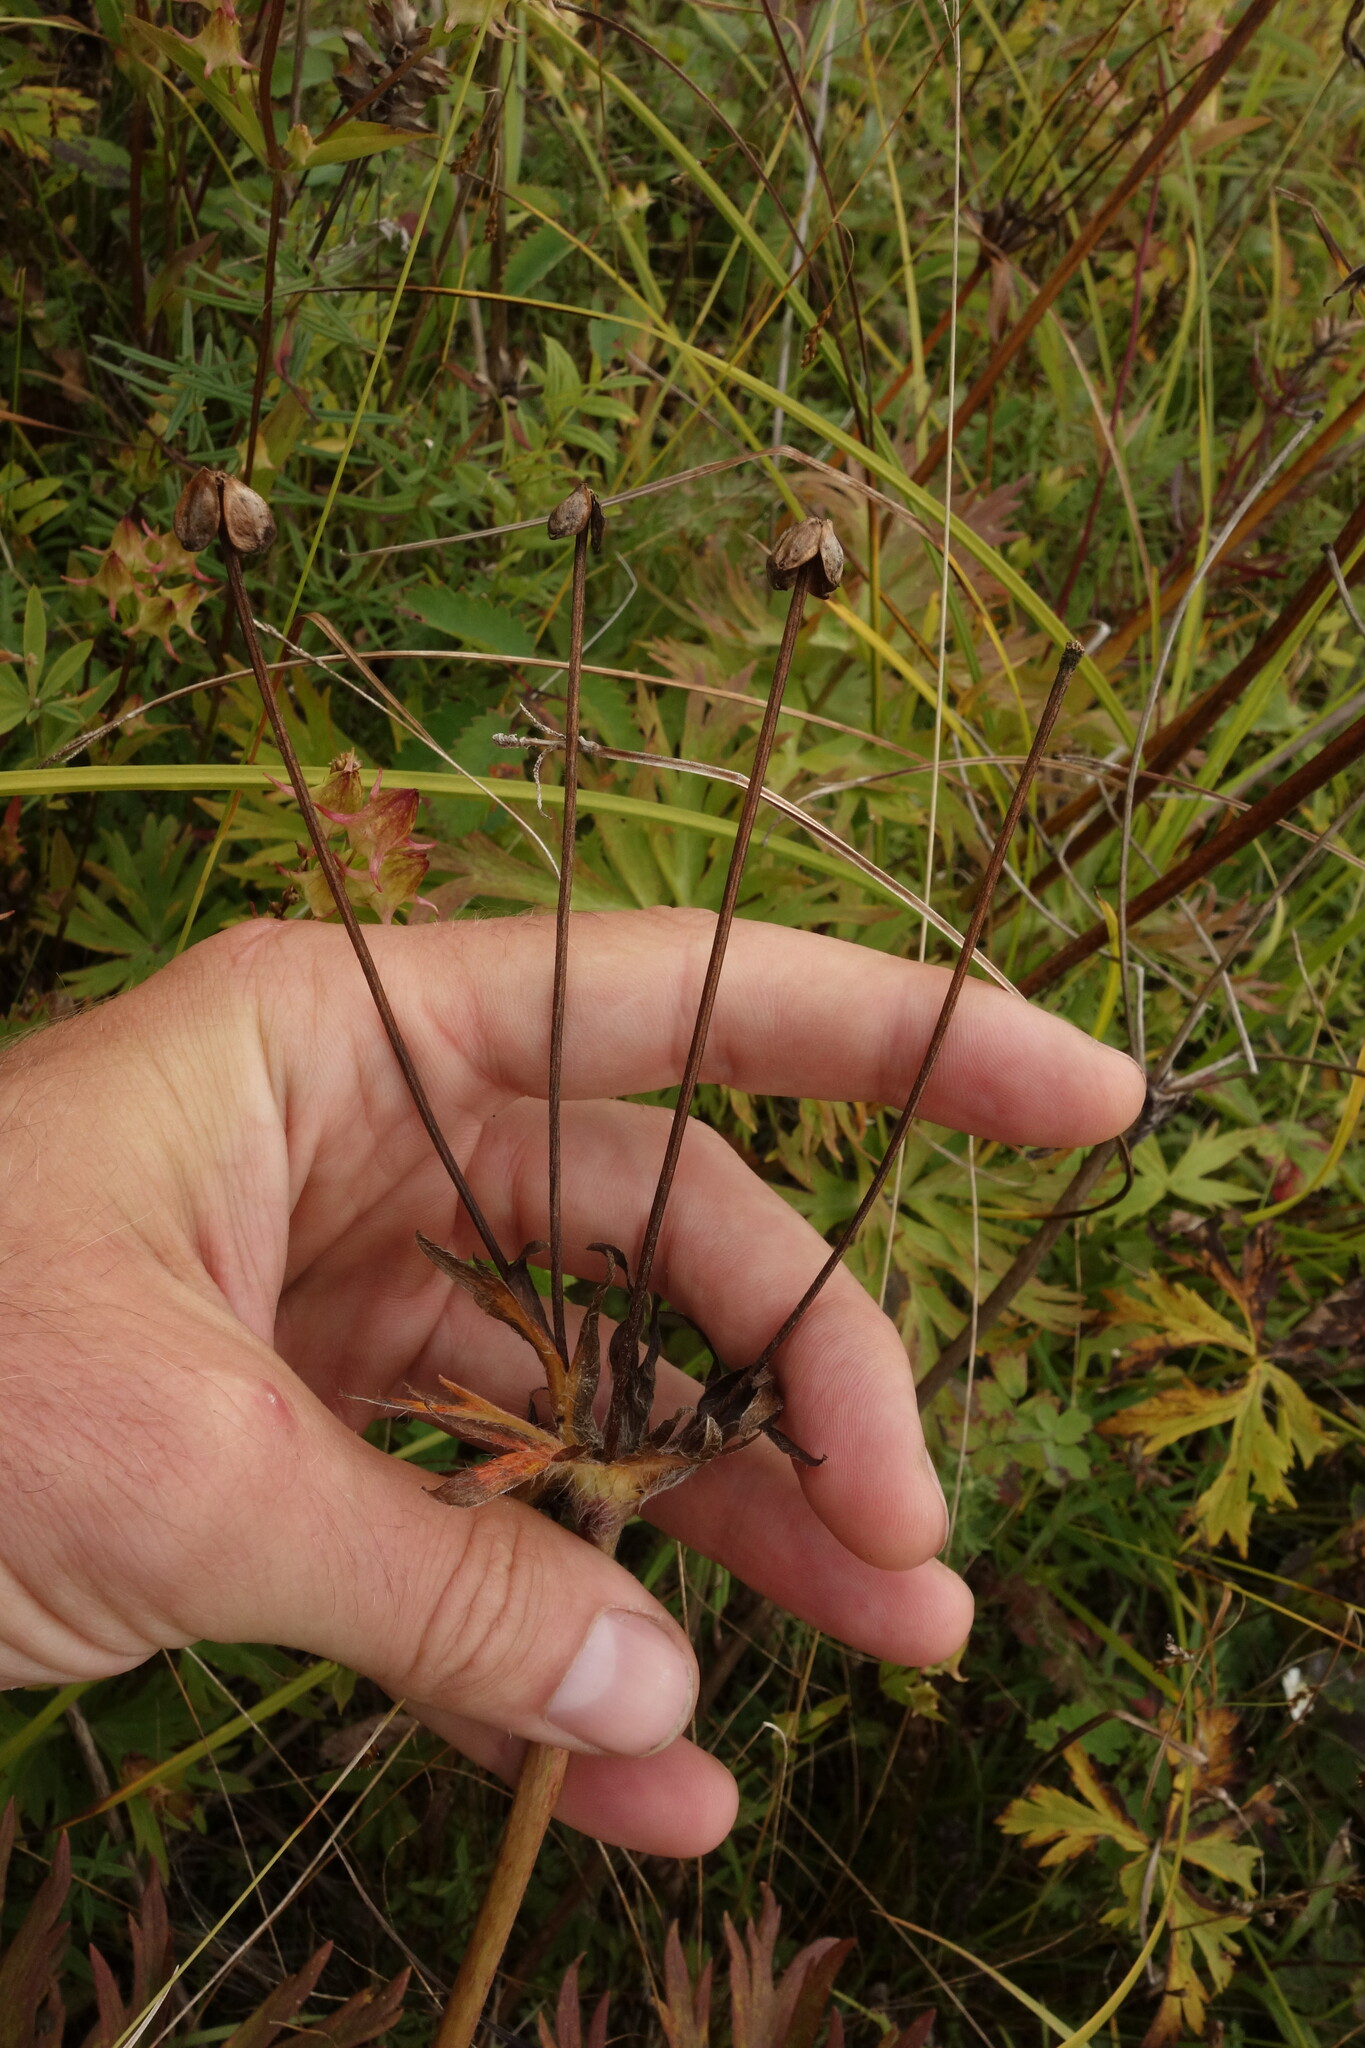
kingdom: Plantae
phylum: Tracheophyta
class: Magnoliopsida
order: Ranunculales
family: Ranunculaceae
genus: Anemonastrum
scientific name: Anemonastrum narcissiflorum
